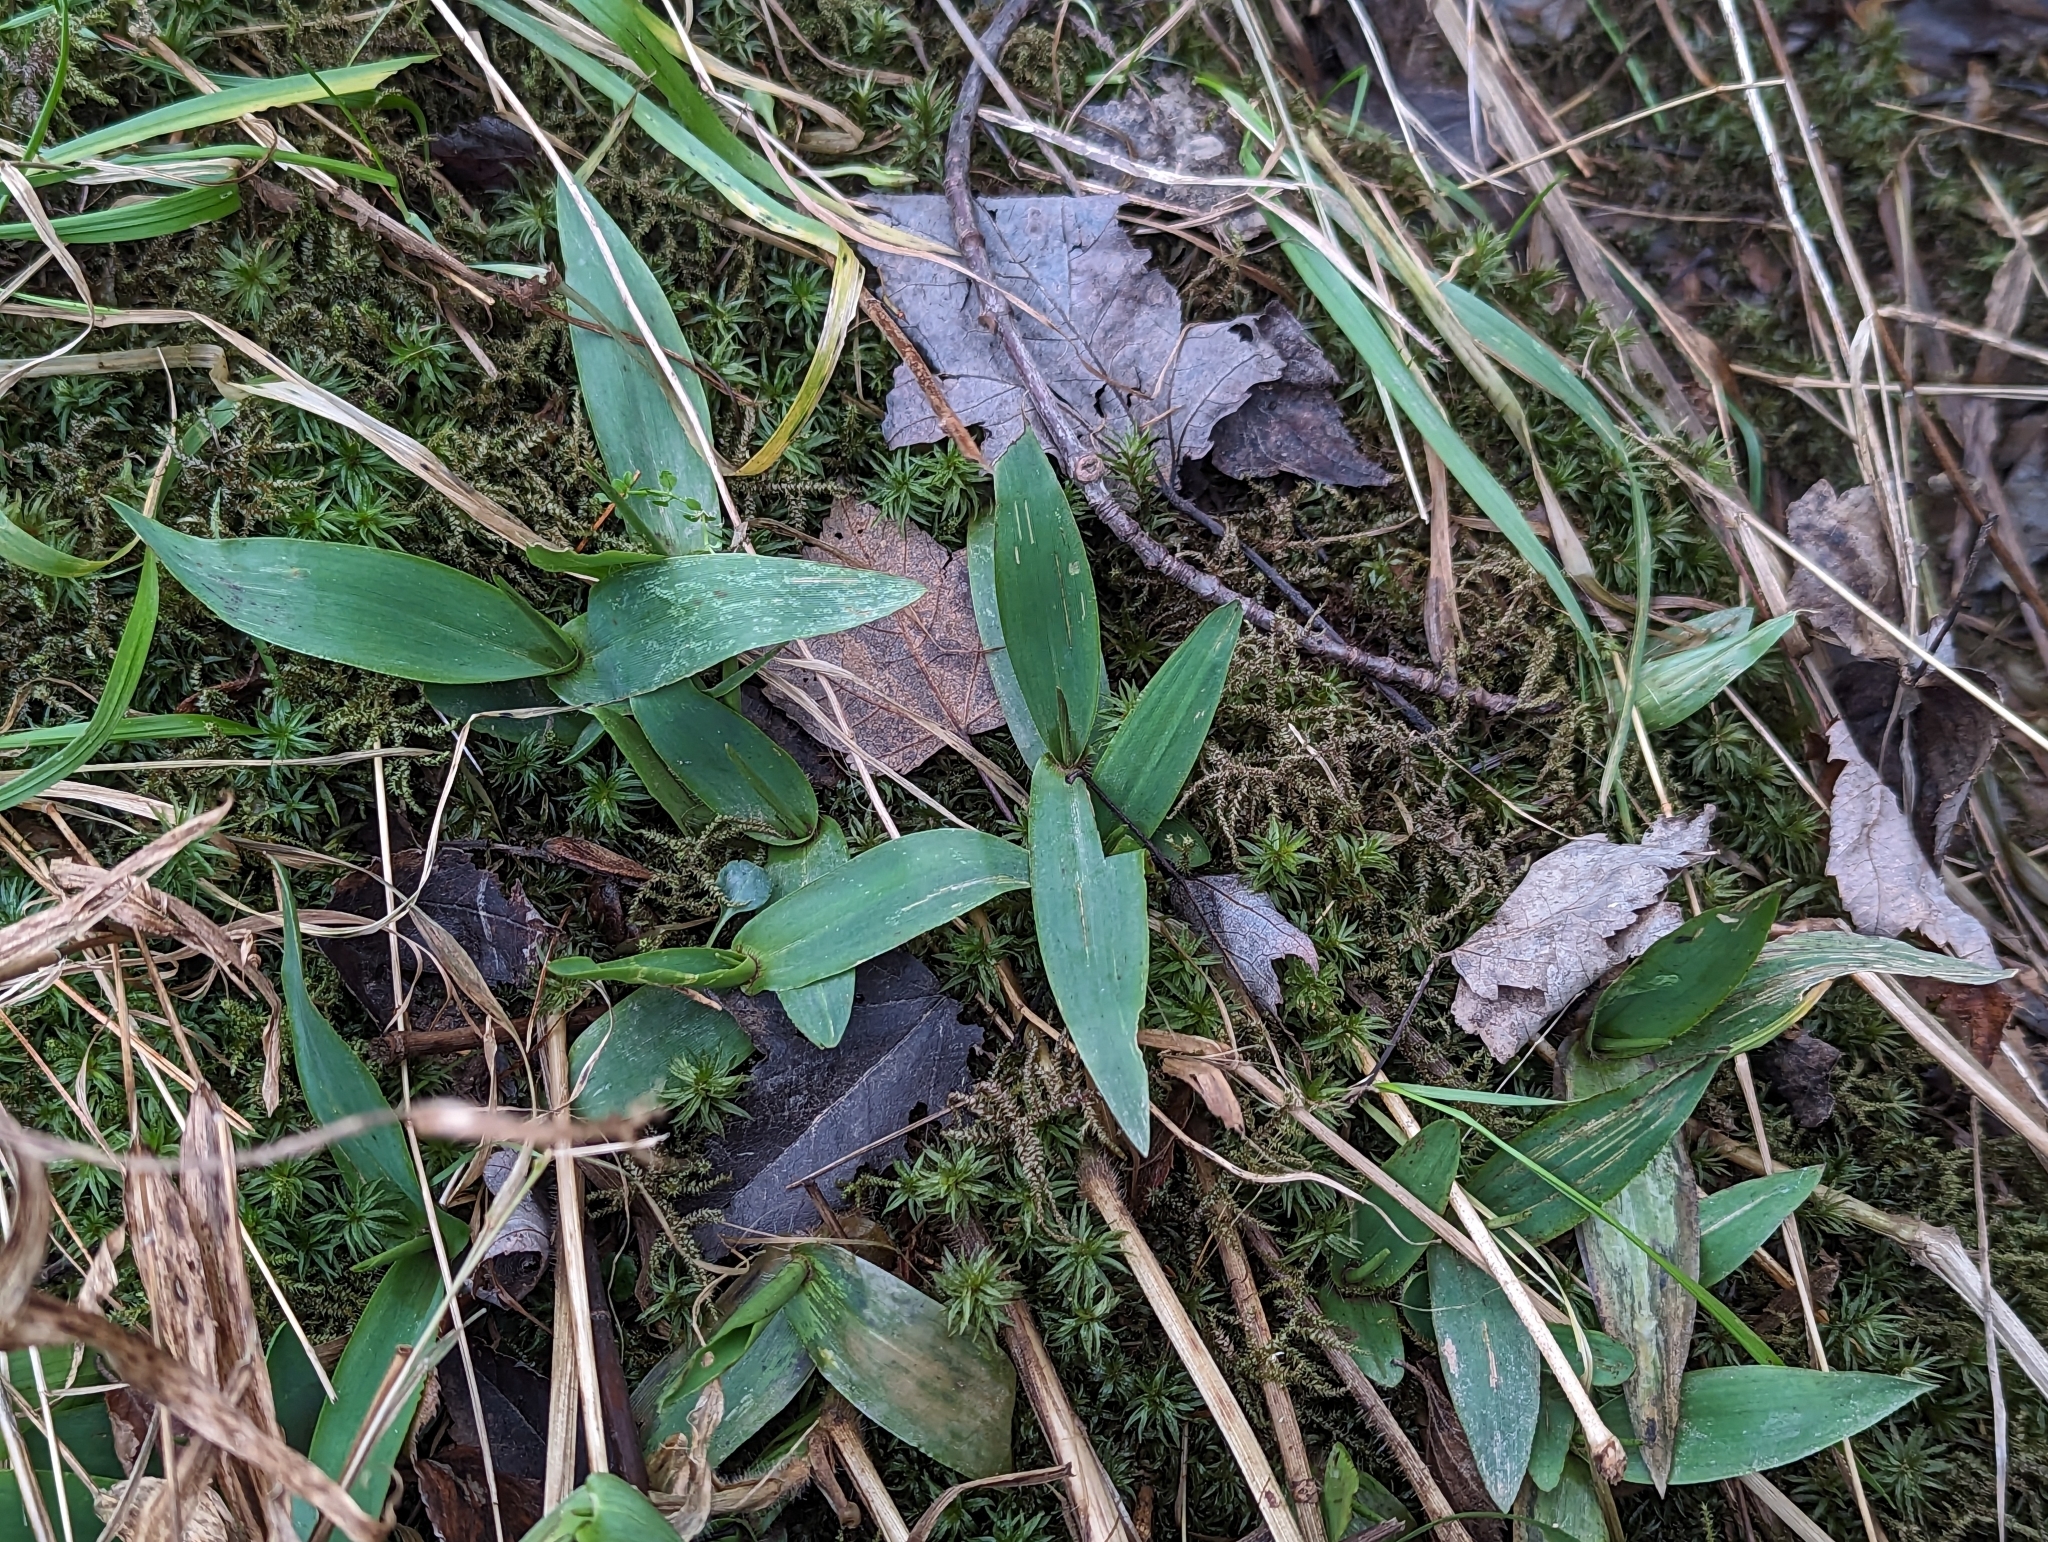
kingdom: Plantae
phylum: Tracheophyta
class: Liliopsida
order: Poales
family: Poaceae
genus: Dichanthelium
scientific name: Dichanthelium clandestinum
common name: Deer-tongue grass
